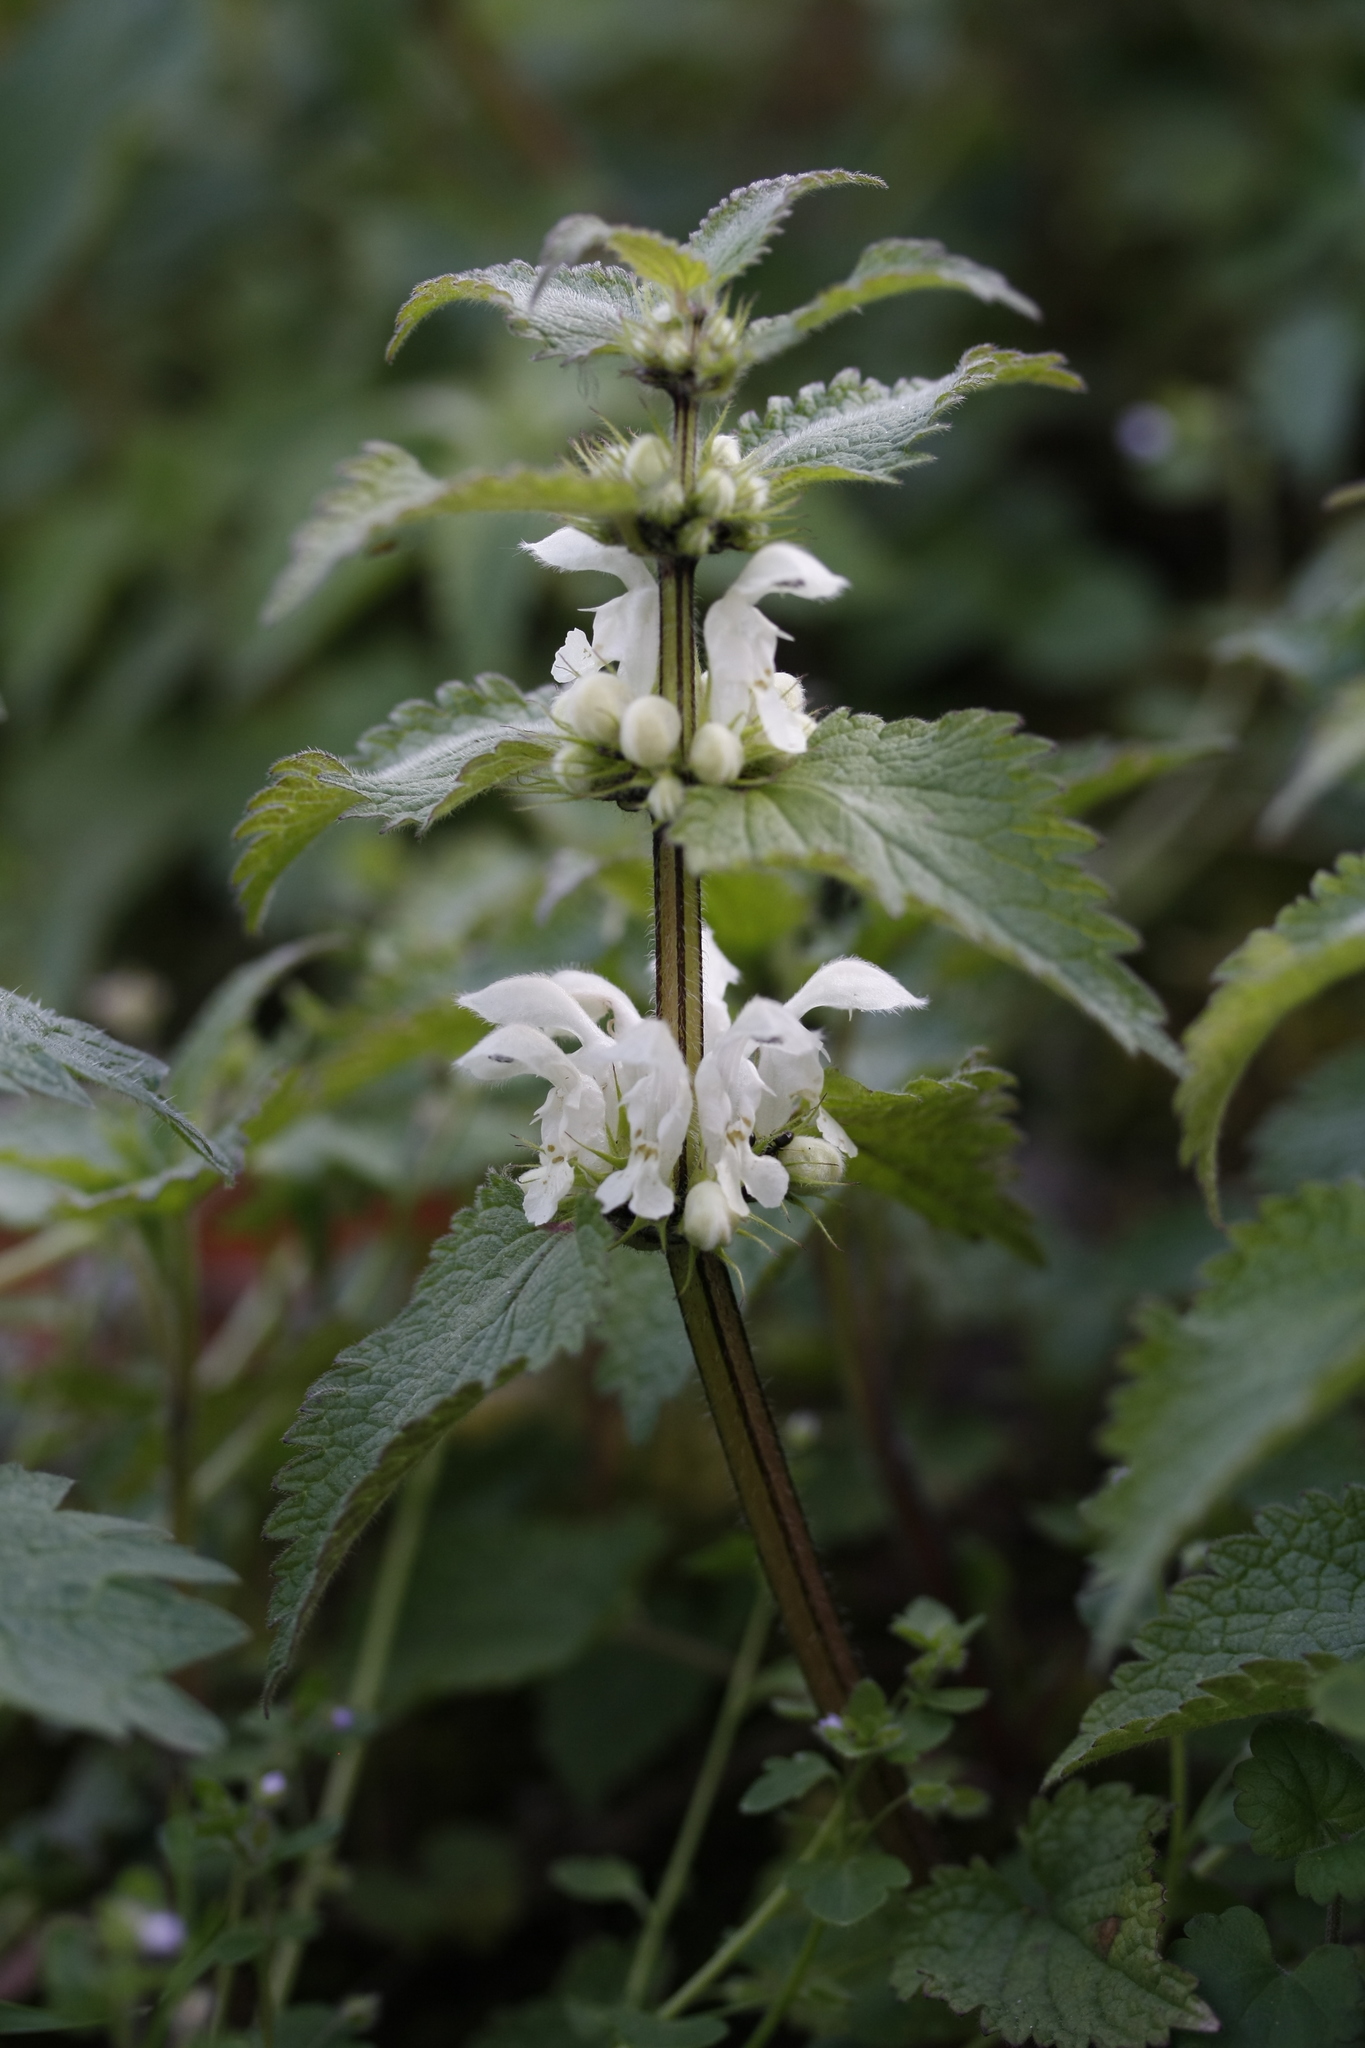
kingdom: Plantae
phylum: Tracheophyta
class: Magnoliopsida
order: Lamiales
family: Lamiaceae
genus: Lamium
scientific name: Lamium album
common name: White dead-nettle
